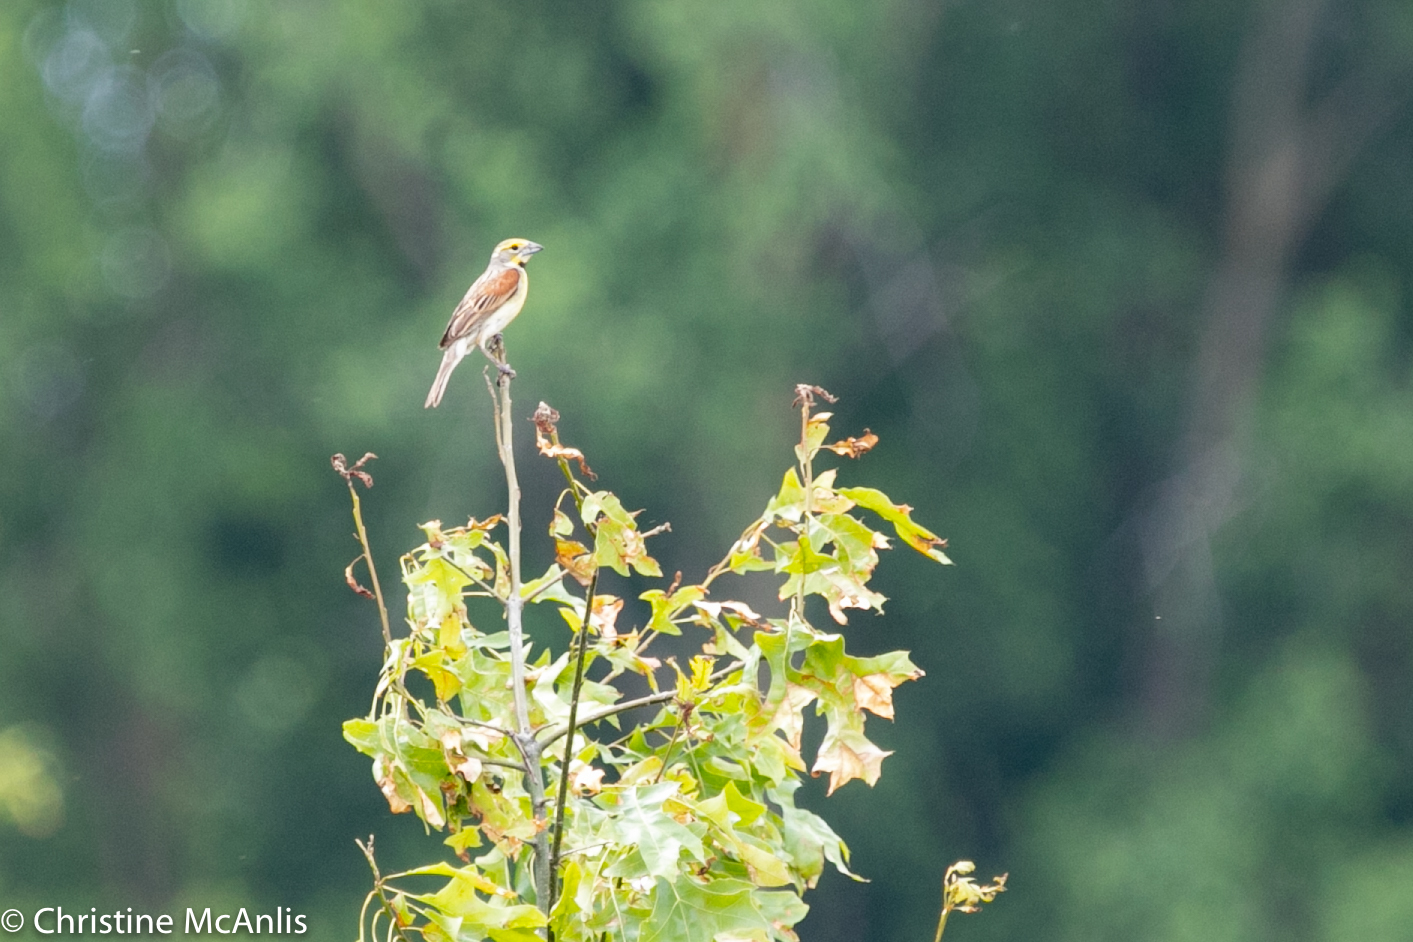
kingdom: Animalia
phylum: Chordata
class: Aves
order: Passeriformes
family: Cardinalidae
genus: Spiza
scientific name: Spiza americana
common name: Dickcissel
